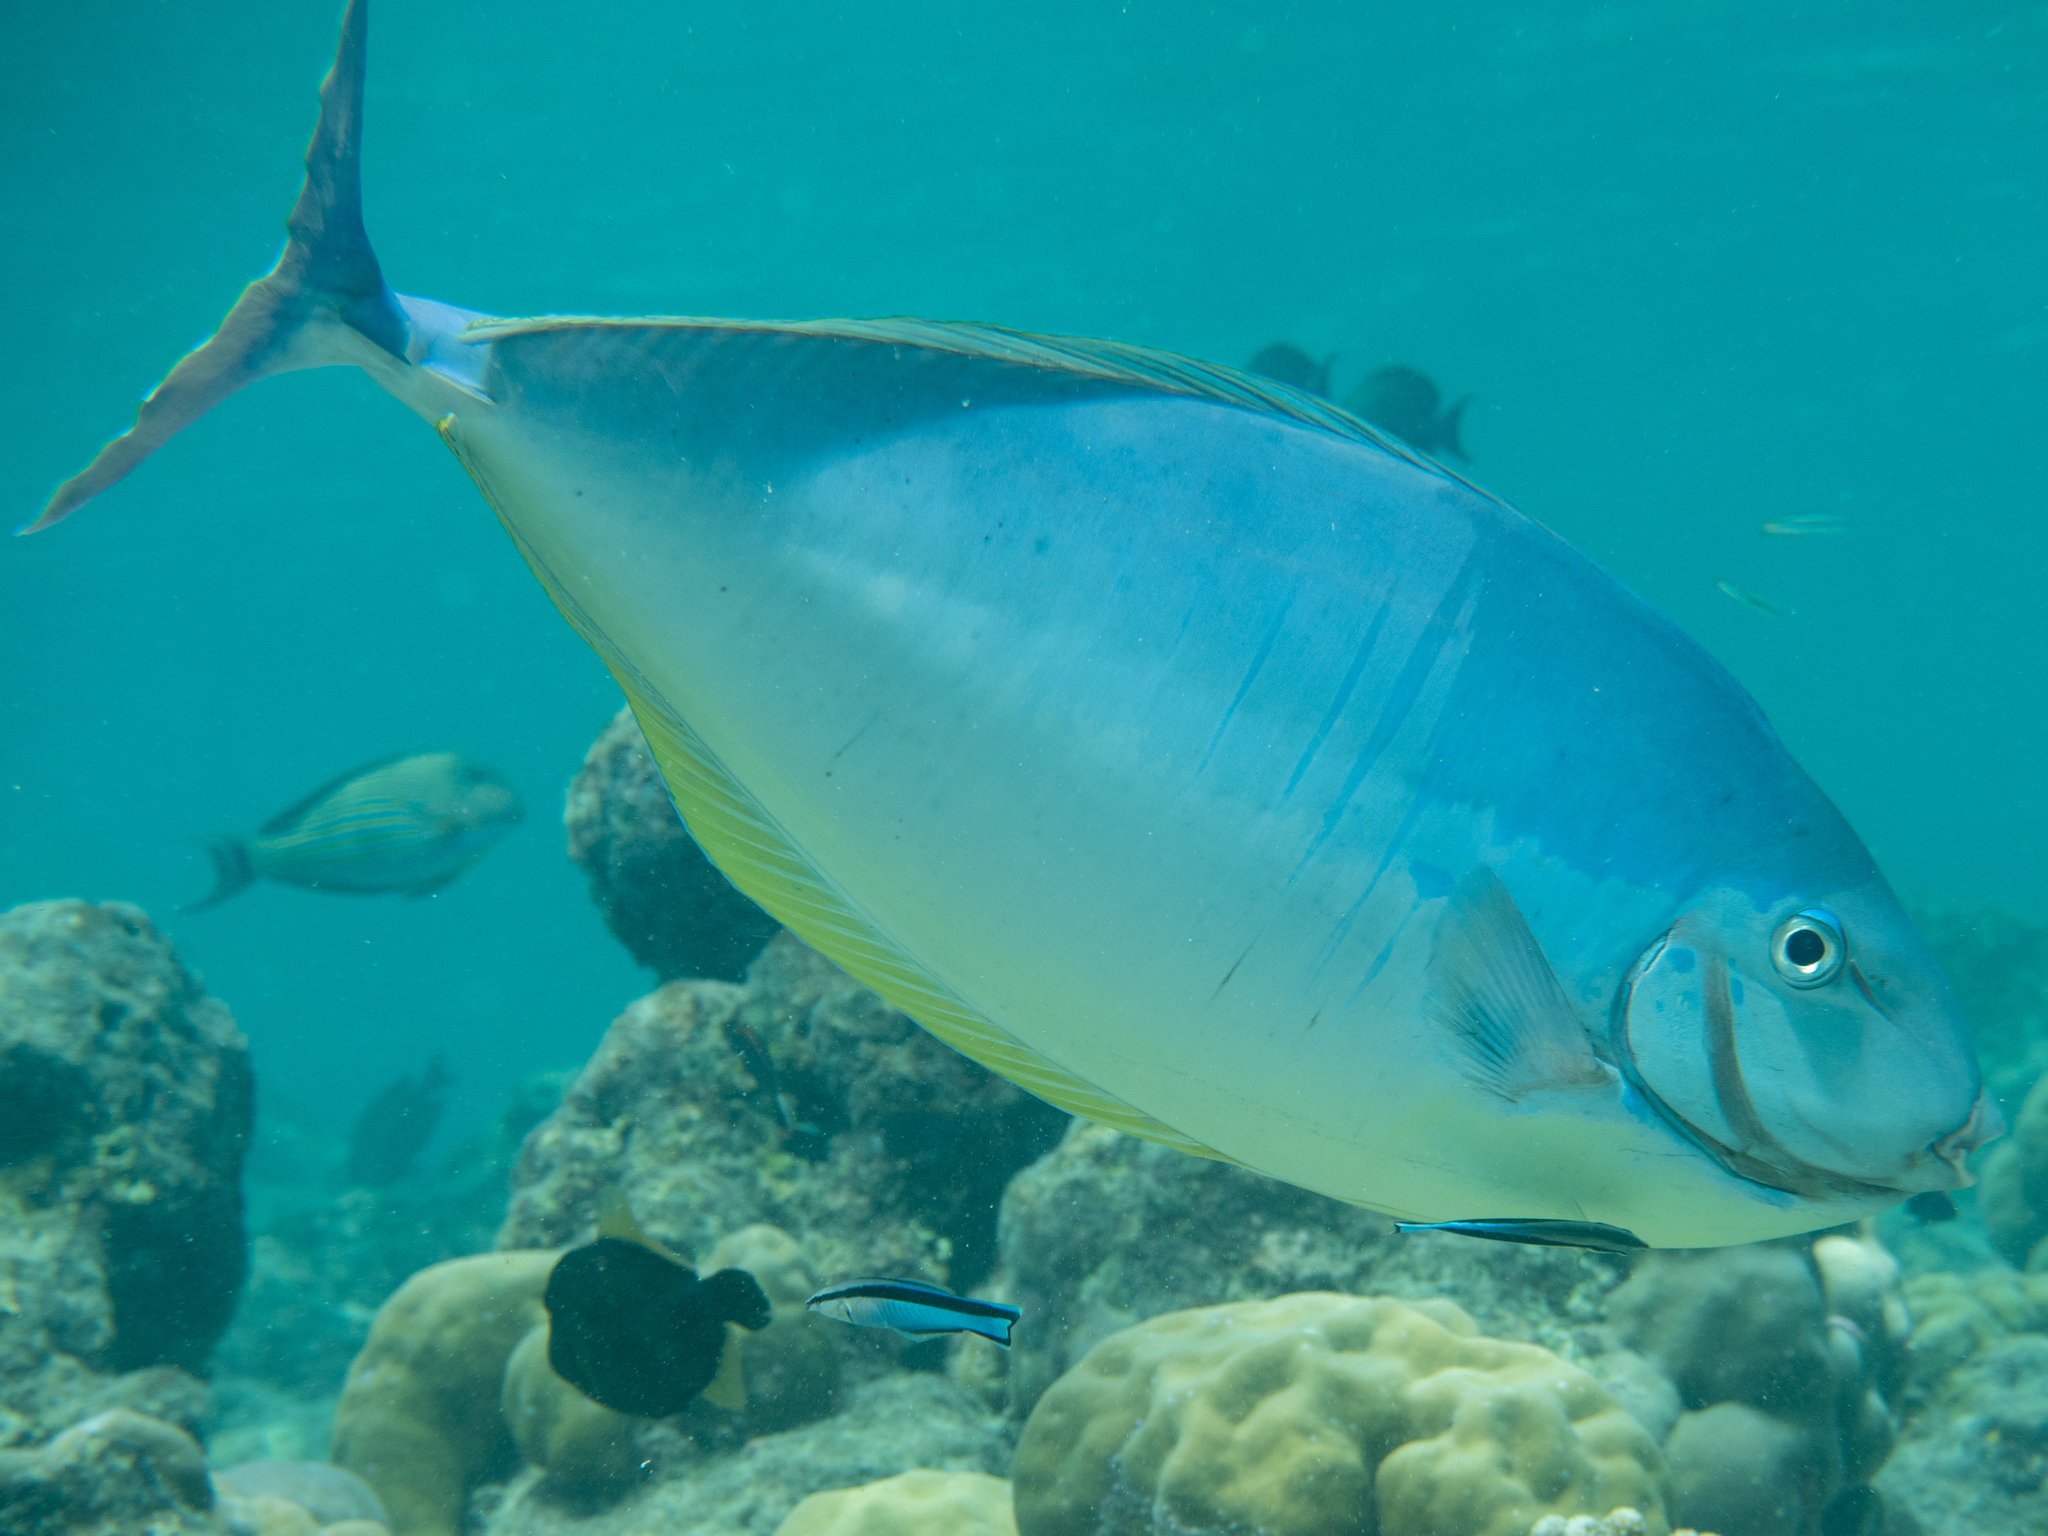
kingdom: Animalia
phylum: Chordata
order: Perciformes
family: Acanthuridae
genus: Naso
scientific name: Naso hexacanthus
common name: Black unicornfish
